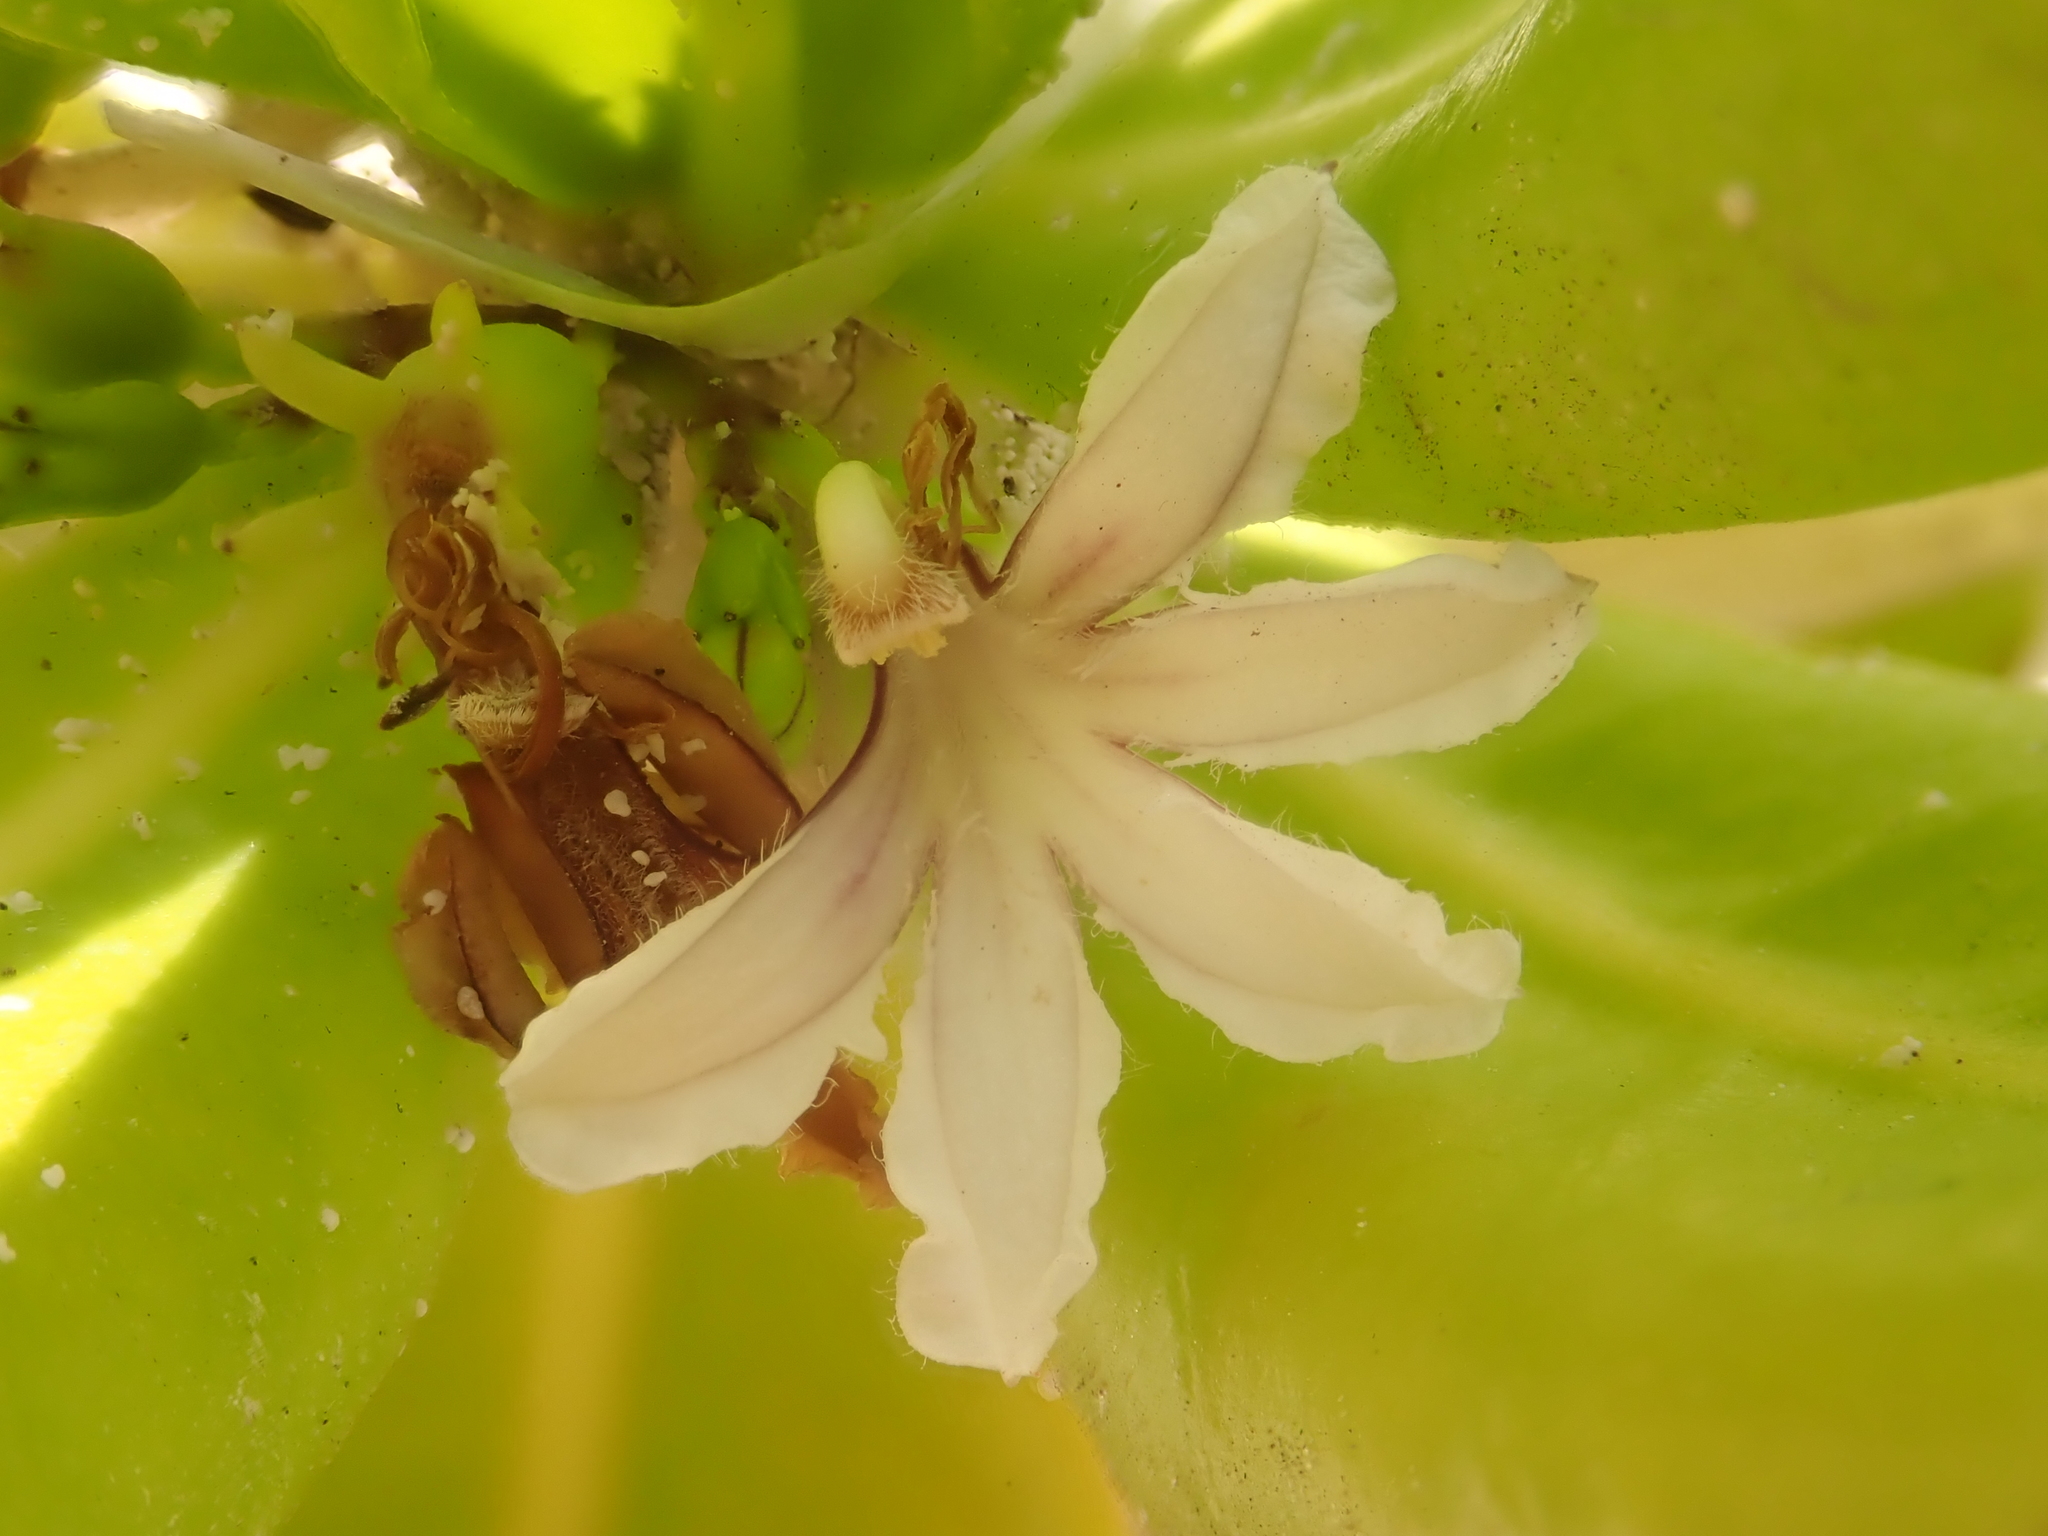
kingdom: Plantae
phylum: Tracheophyta
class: Magnoliopsida
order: Asterales
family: Goodeniaceae
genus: Scaevola
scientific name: Scaevola taccada
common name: Sea lettucetree
